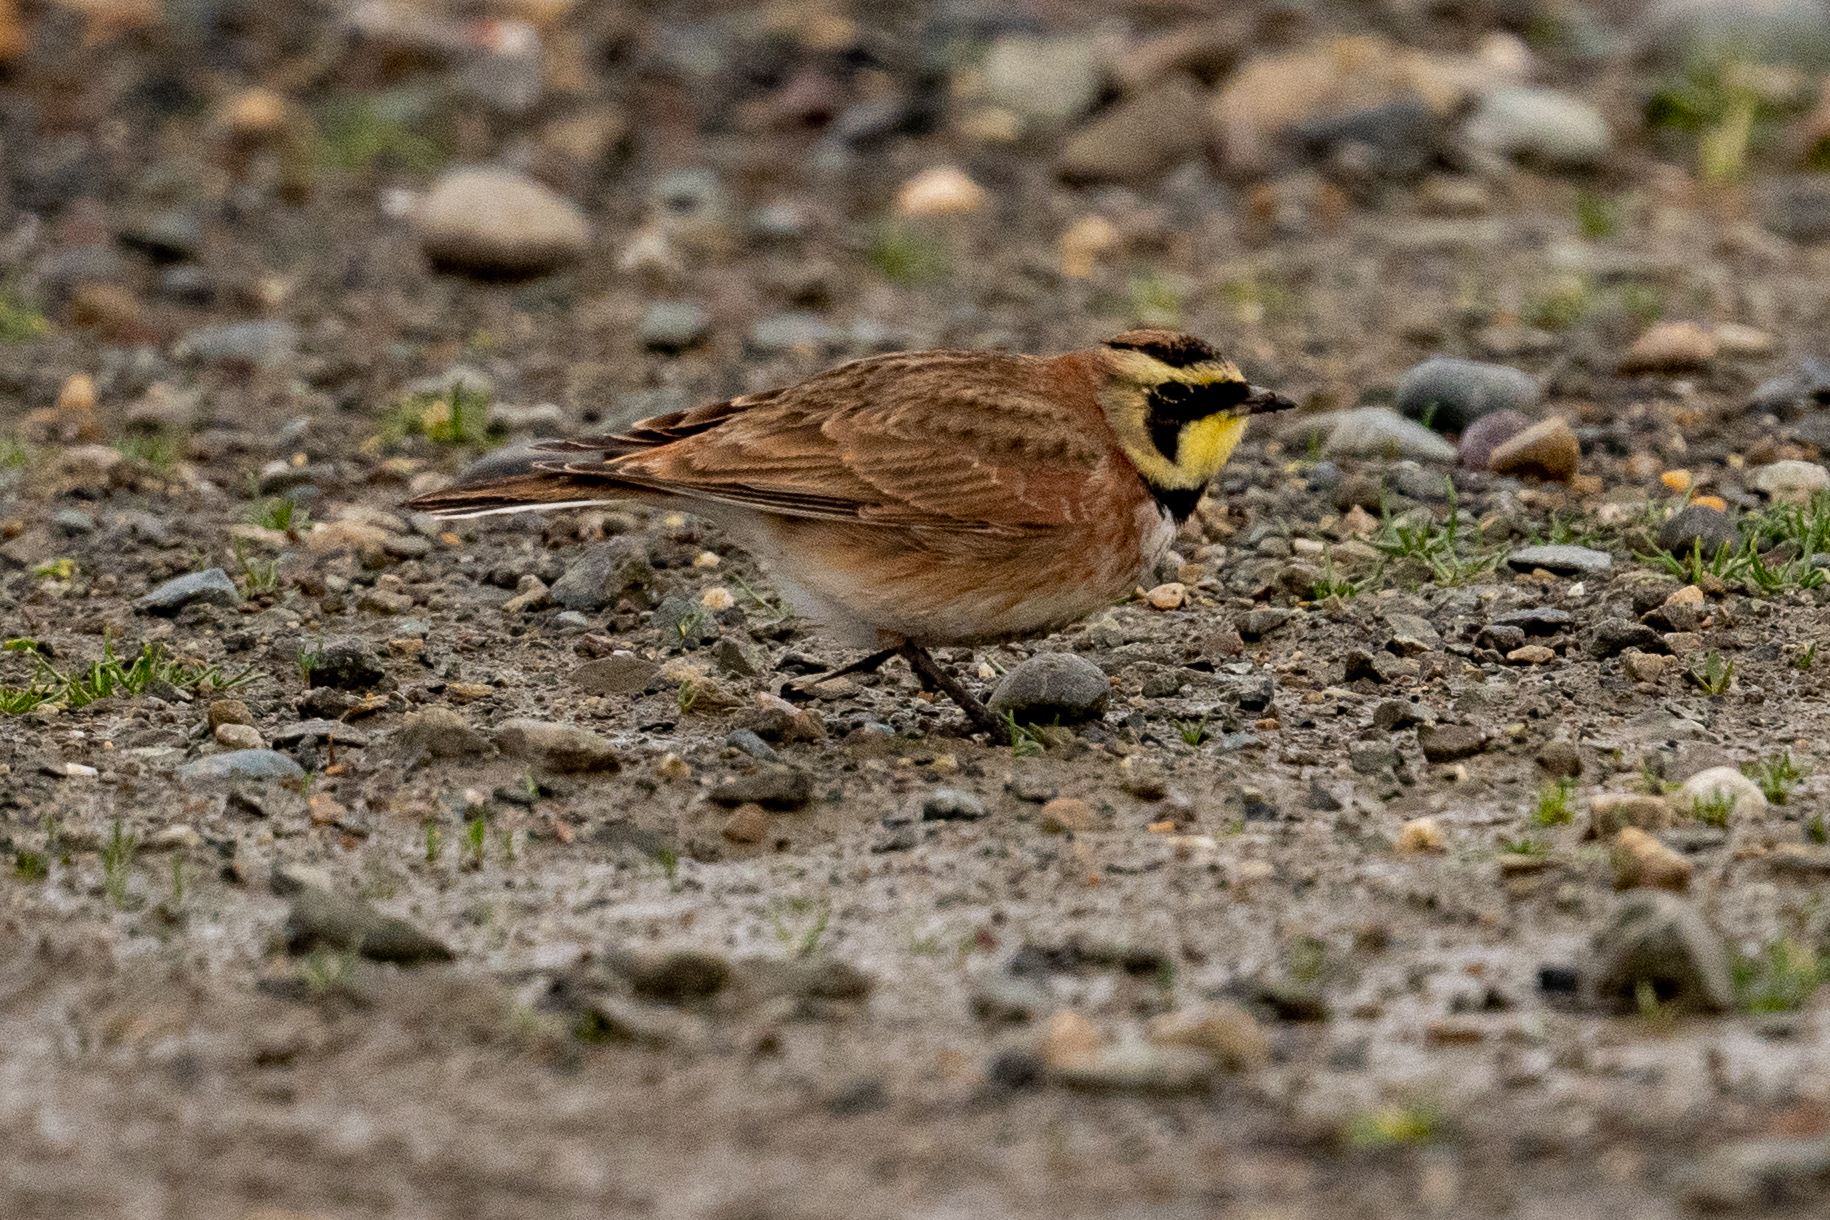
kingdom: Animalia
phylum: Chordata
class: Aves
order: Passeriformes
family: Alaudidae
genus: Eremophila
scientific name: Eremophila alpestris
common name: Horned lark
